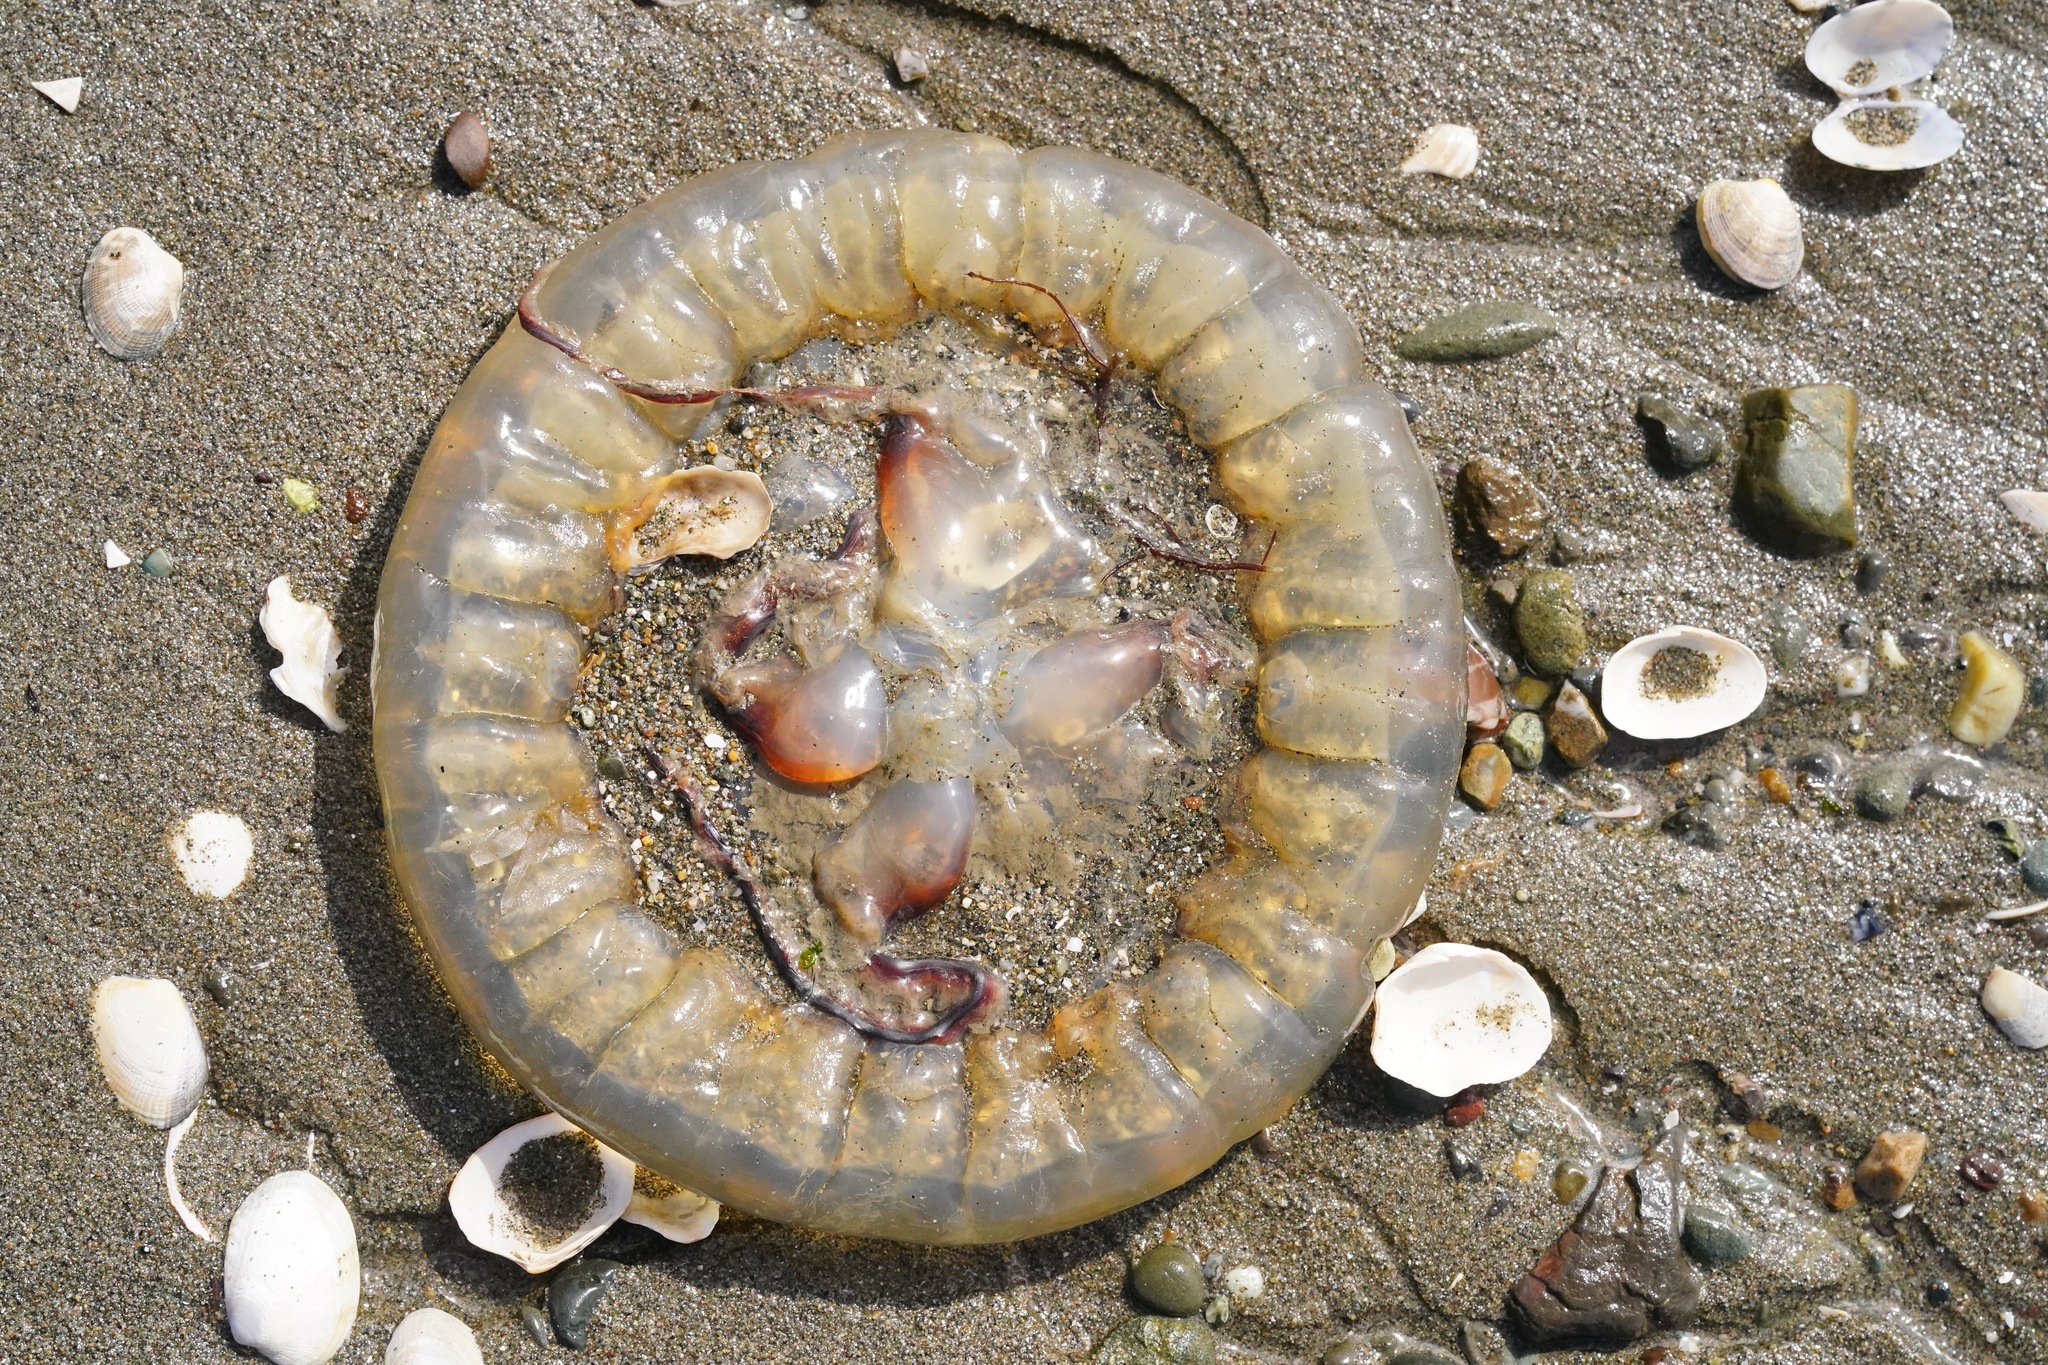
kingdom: Animalia
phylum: Cnidaria
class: Scyphozoa
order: Semaeostomeae
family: Pelagiidae
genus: Chrysaora
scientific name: Chrysaora fuscescens
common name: Sea nettle
